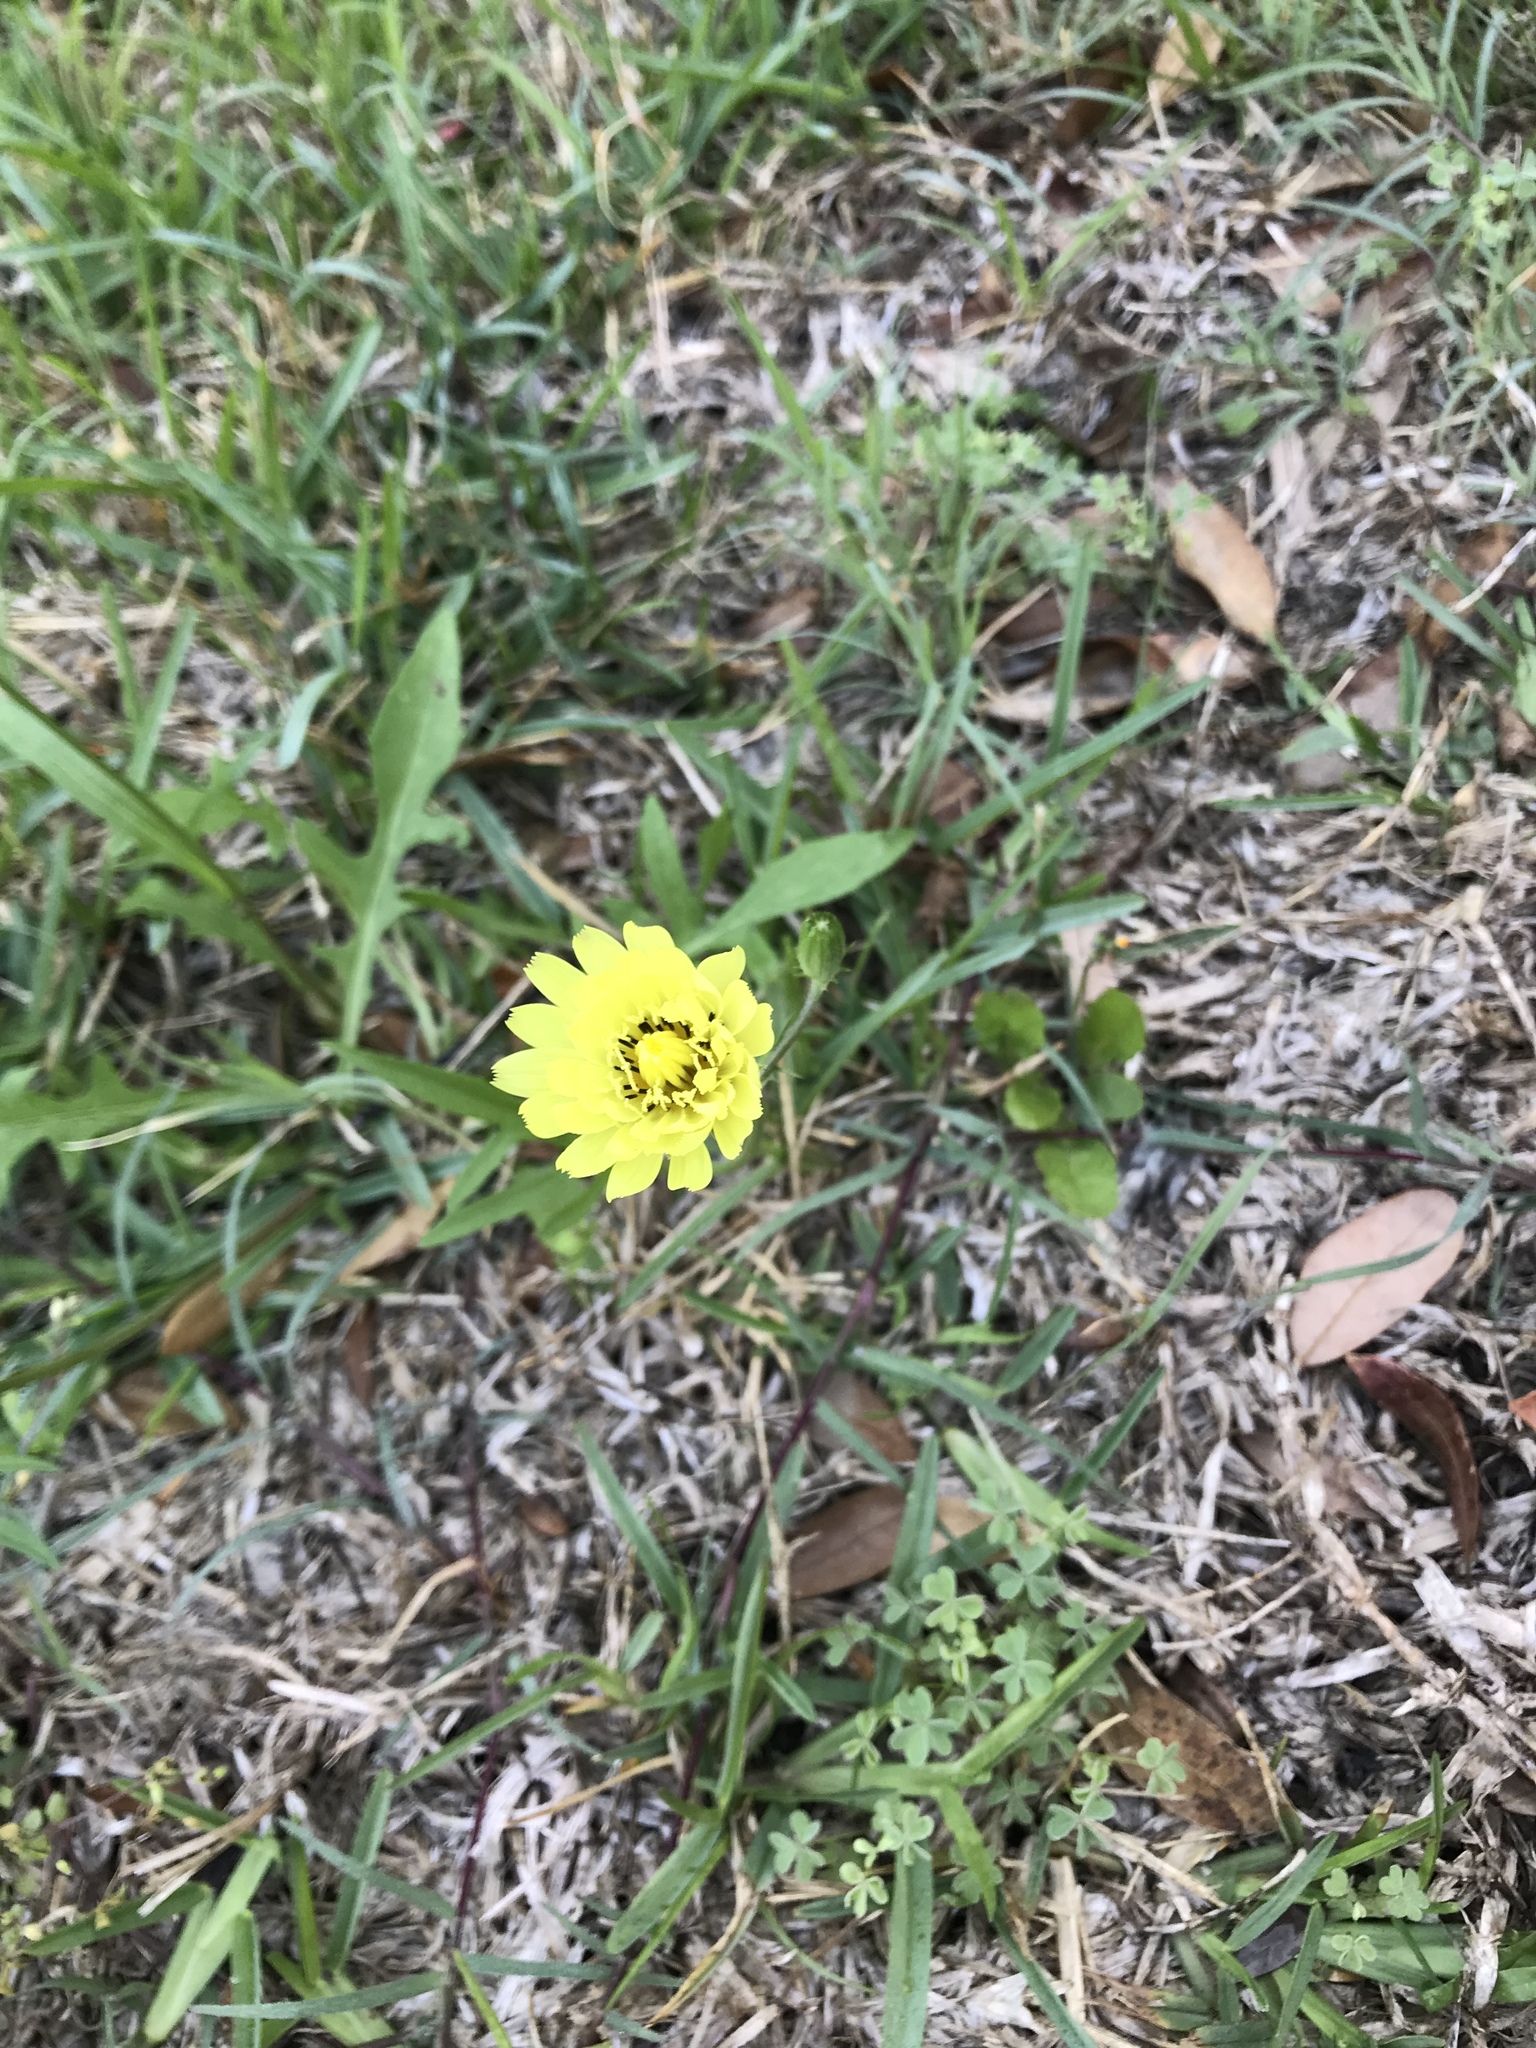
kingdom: Plantae
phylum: Tracheophyta
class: Magnoliopsida
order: Asterales
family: Asteraceae
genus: Pyrrhopappus
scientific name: Pyrrhopappus pauciflorus
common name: Texas false dandelion
